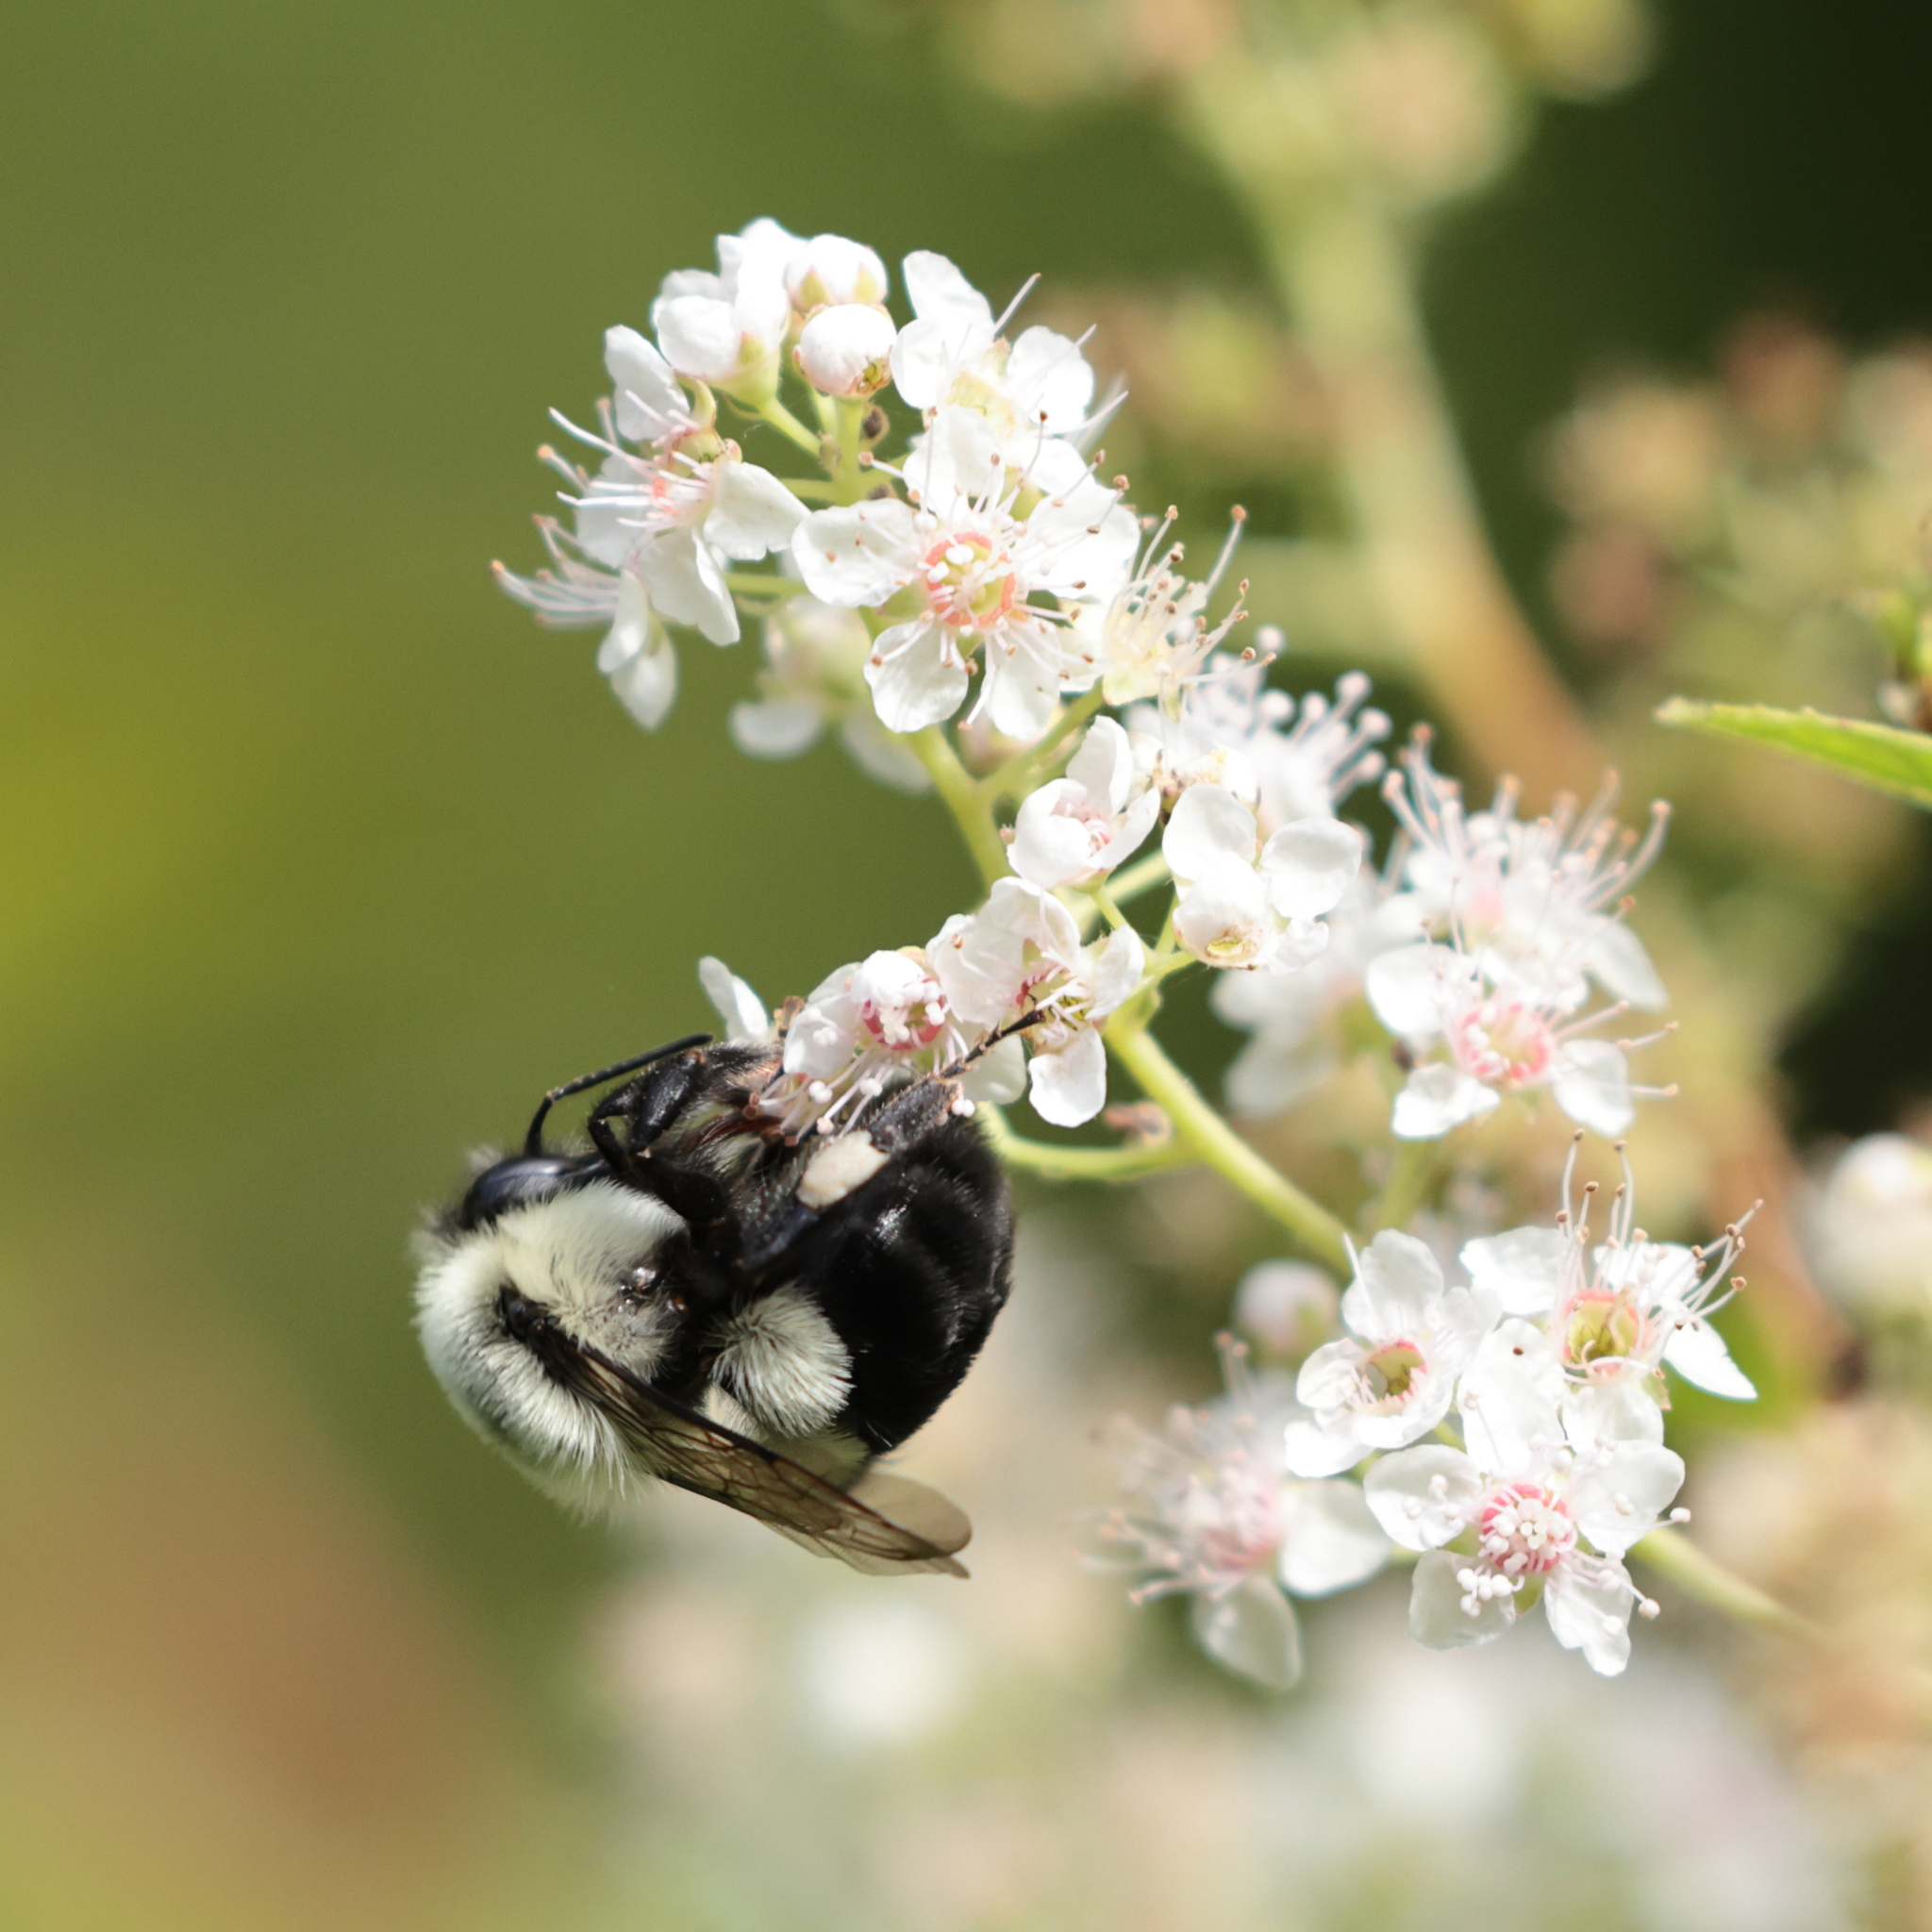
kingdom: Animalia
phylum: Arthropoda
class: Insecta
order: Hymenoptera
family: Apidae
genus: Bombus
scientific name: Bombus impatiens
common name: Common eastern bumble bee
